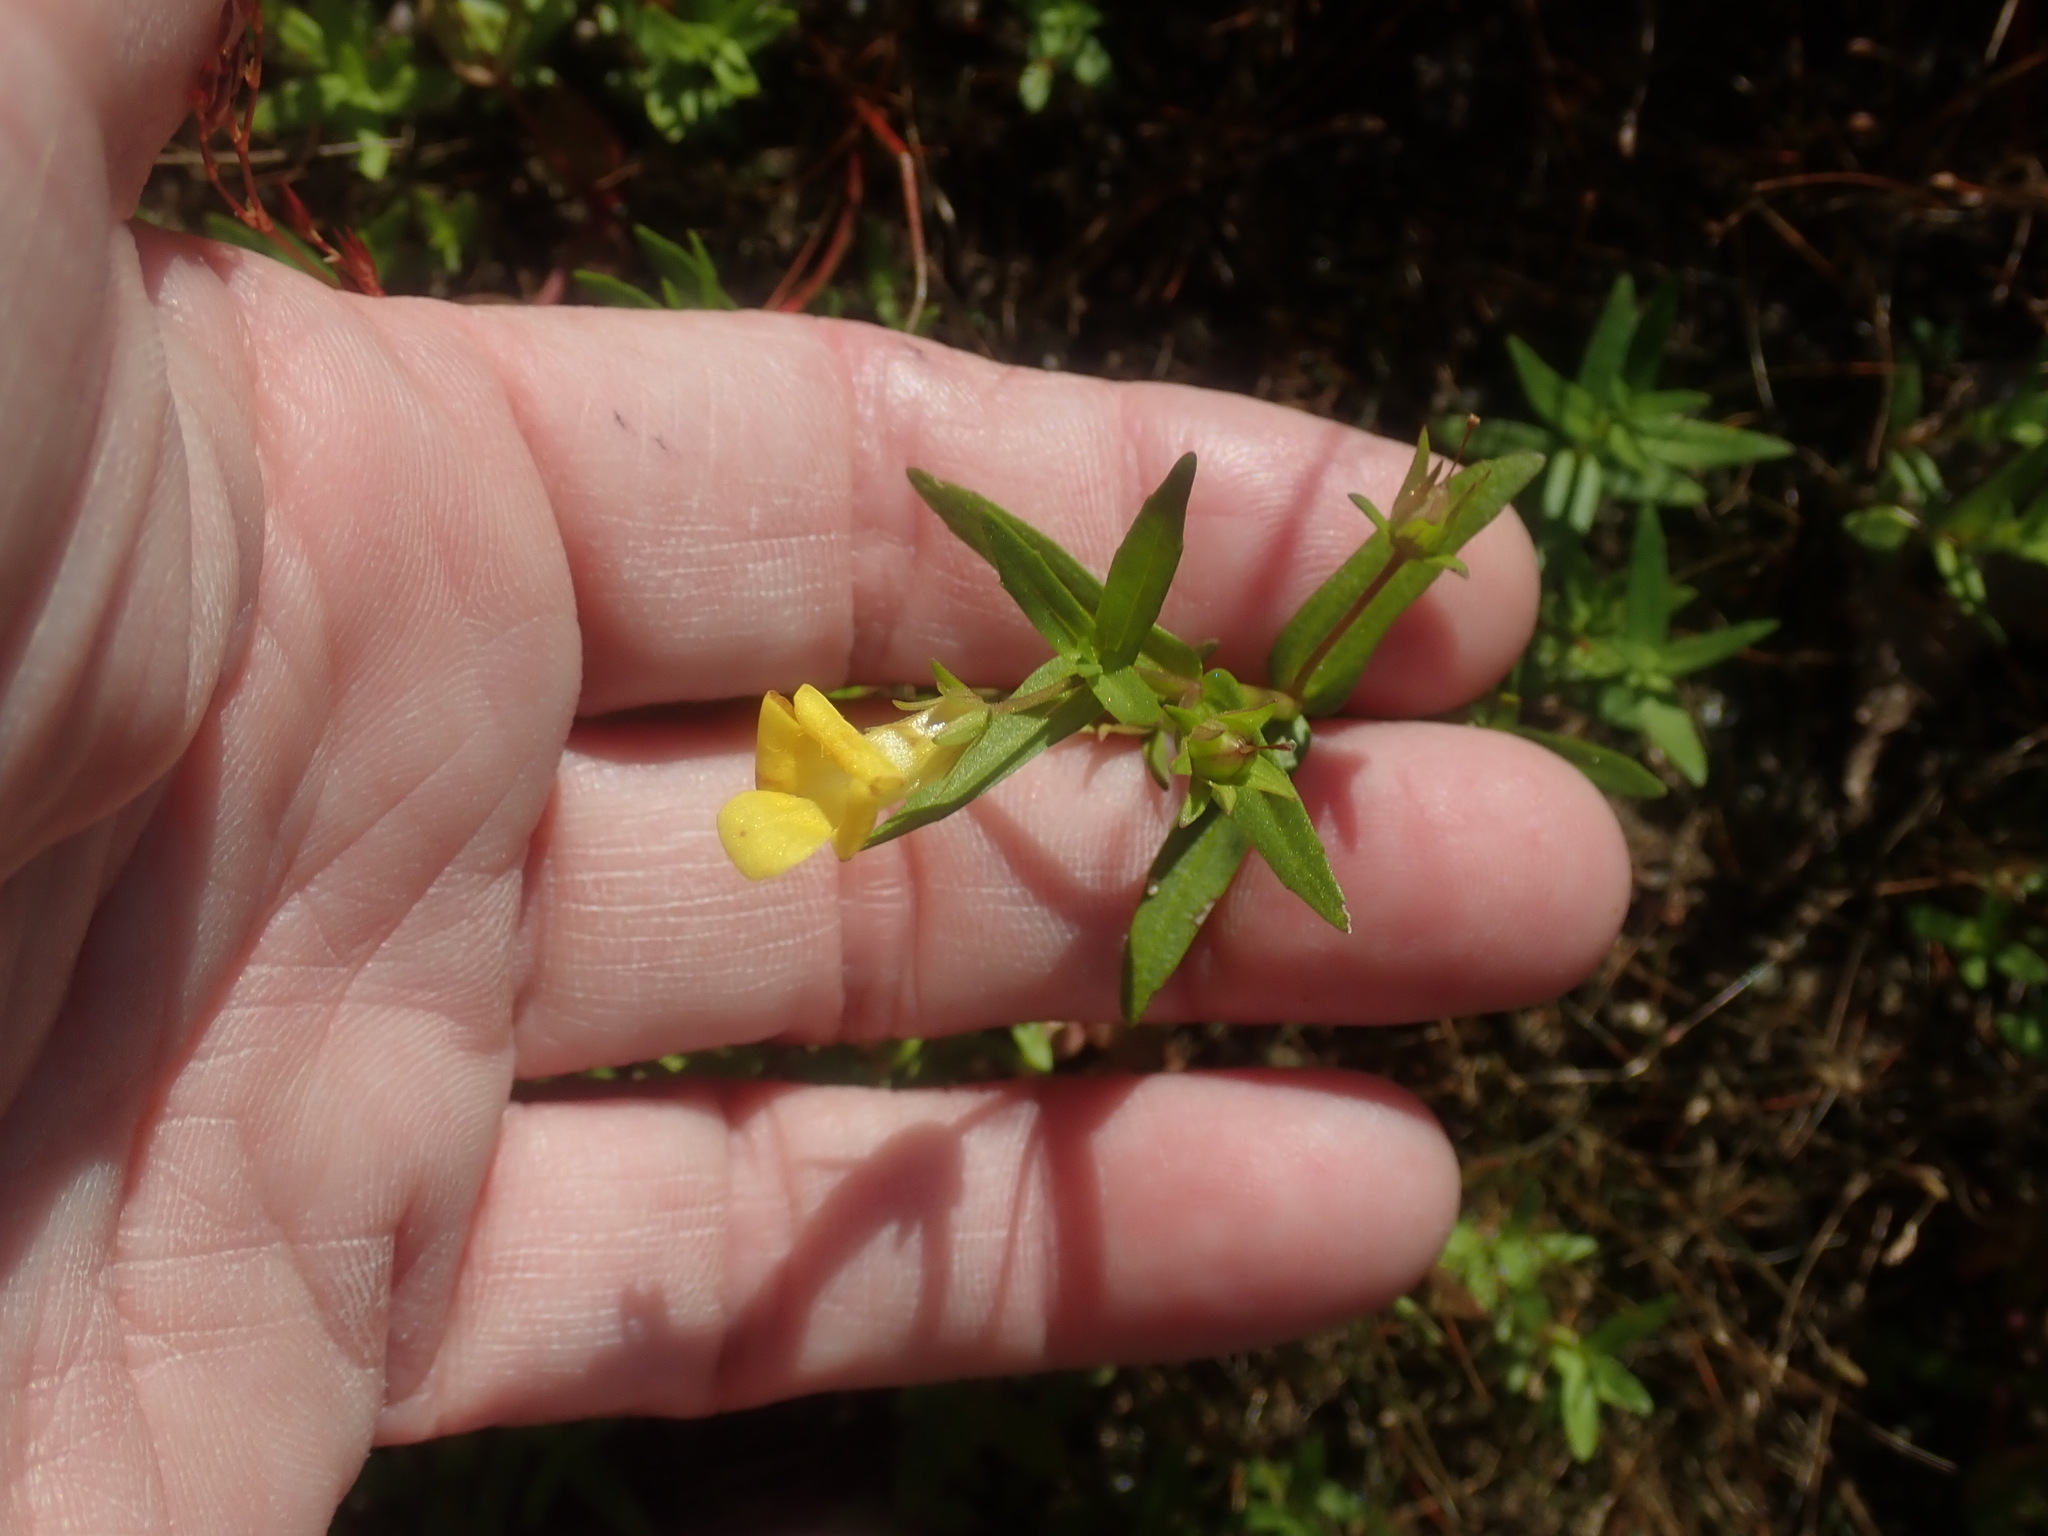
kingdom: Plantae
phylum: Tracheophyta
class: Magnoliopsida
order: Lamiales
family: Plantaginaceae
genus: Gratiola
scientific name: Gratiola lutea
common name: Golden hedge-hyssop
